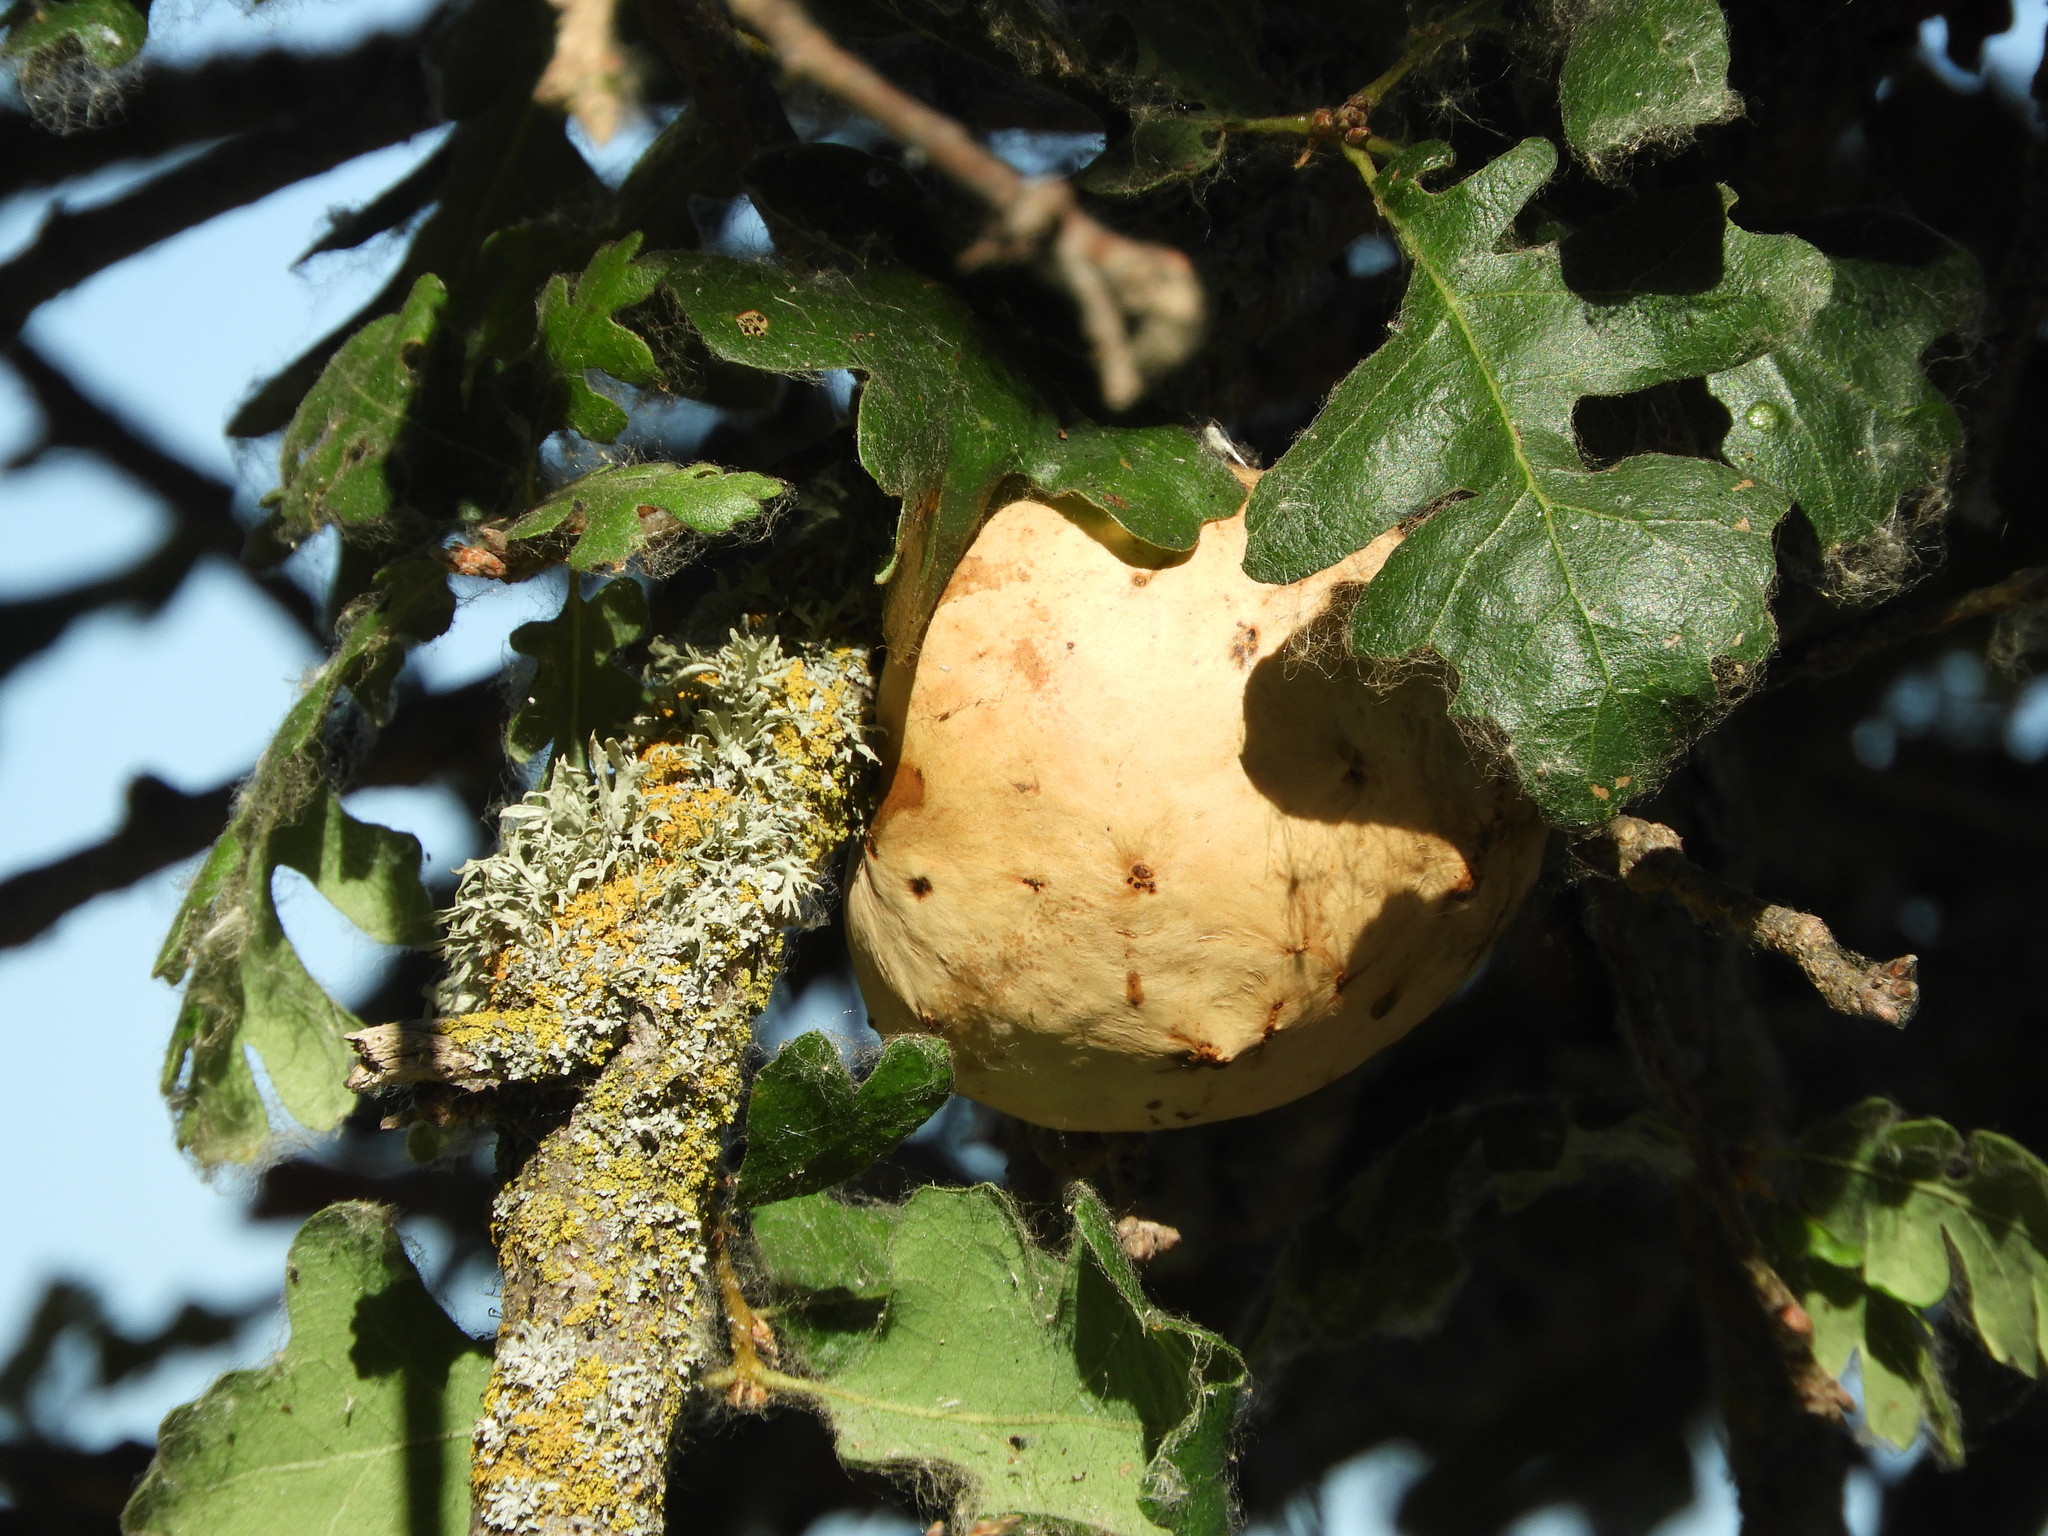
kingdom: Animalia
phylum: Arthropoda
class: Insecta
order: Hymenoptera
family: Cynipidae
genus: Andricus
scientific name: Andricus quercuscalifornicus
